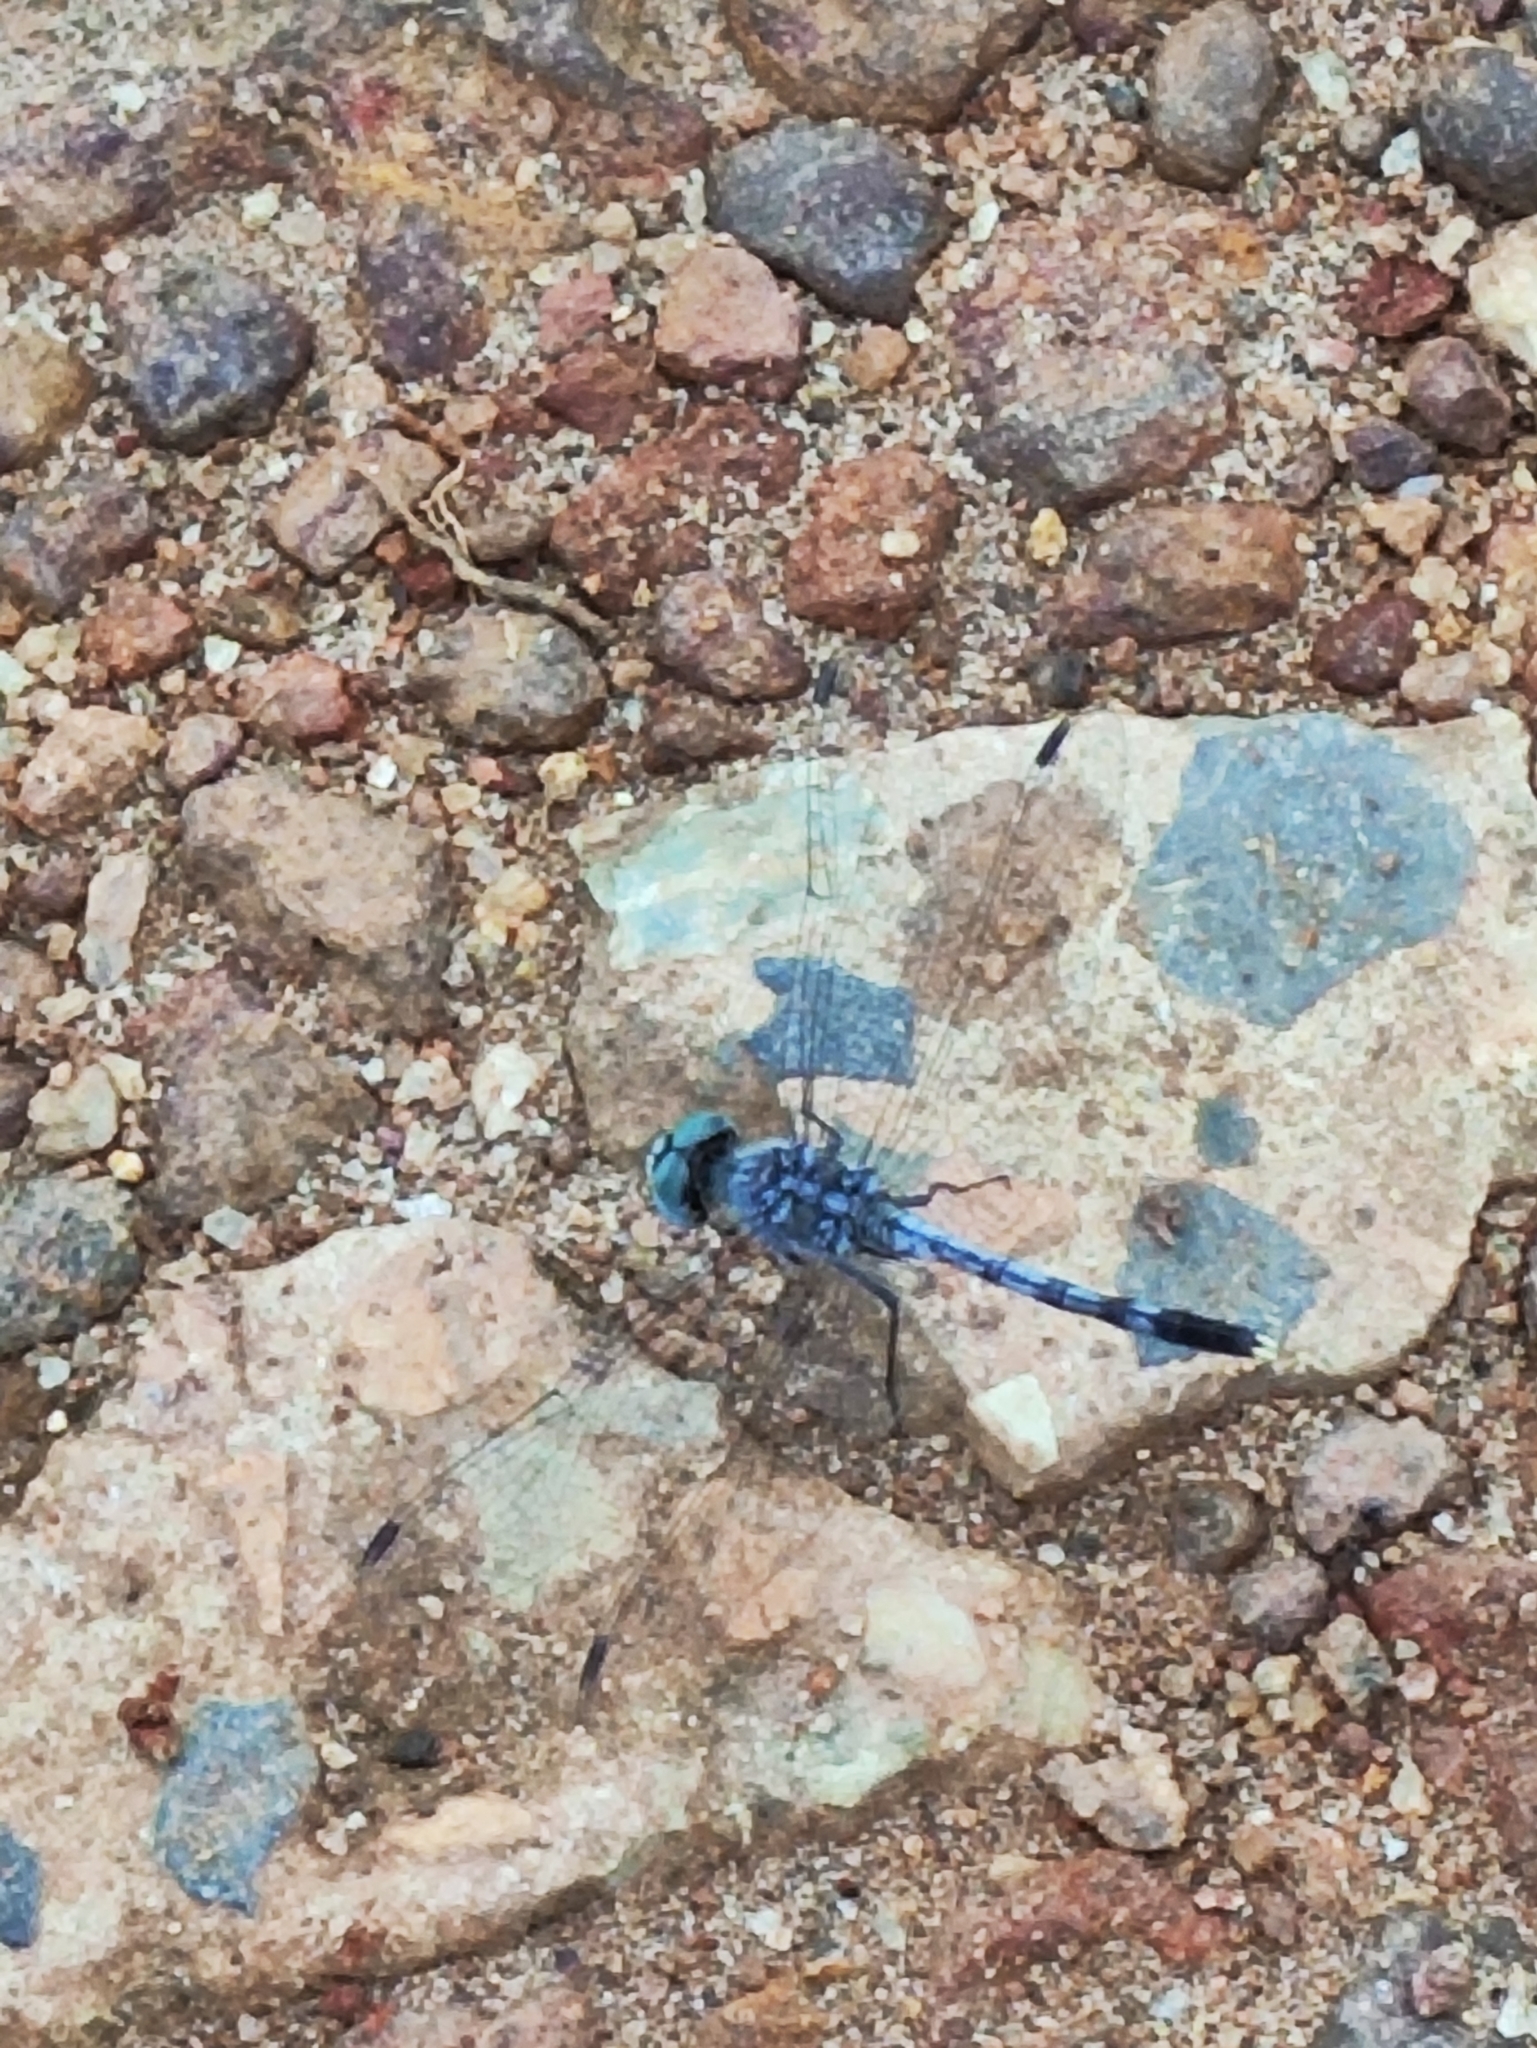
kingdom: Animalia
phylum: Arthropoda
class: Insecta
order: Odonata
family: Libellulidae
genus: Diplacodes
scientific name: Diplacodes trivialis
